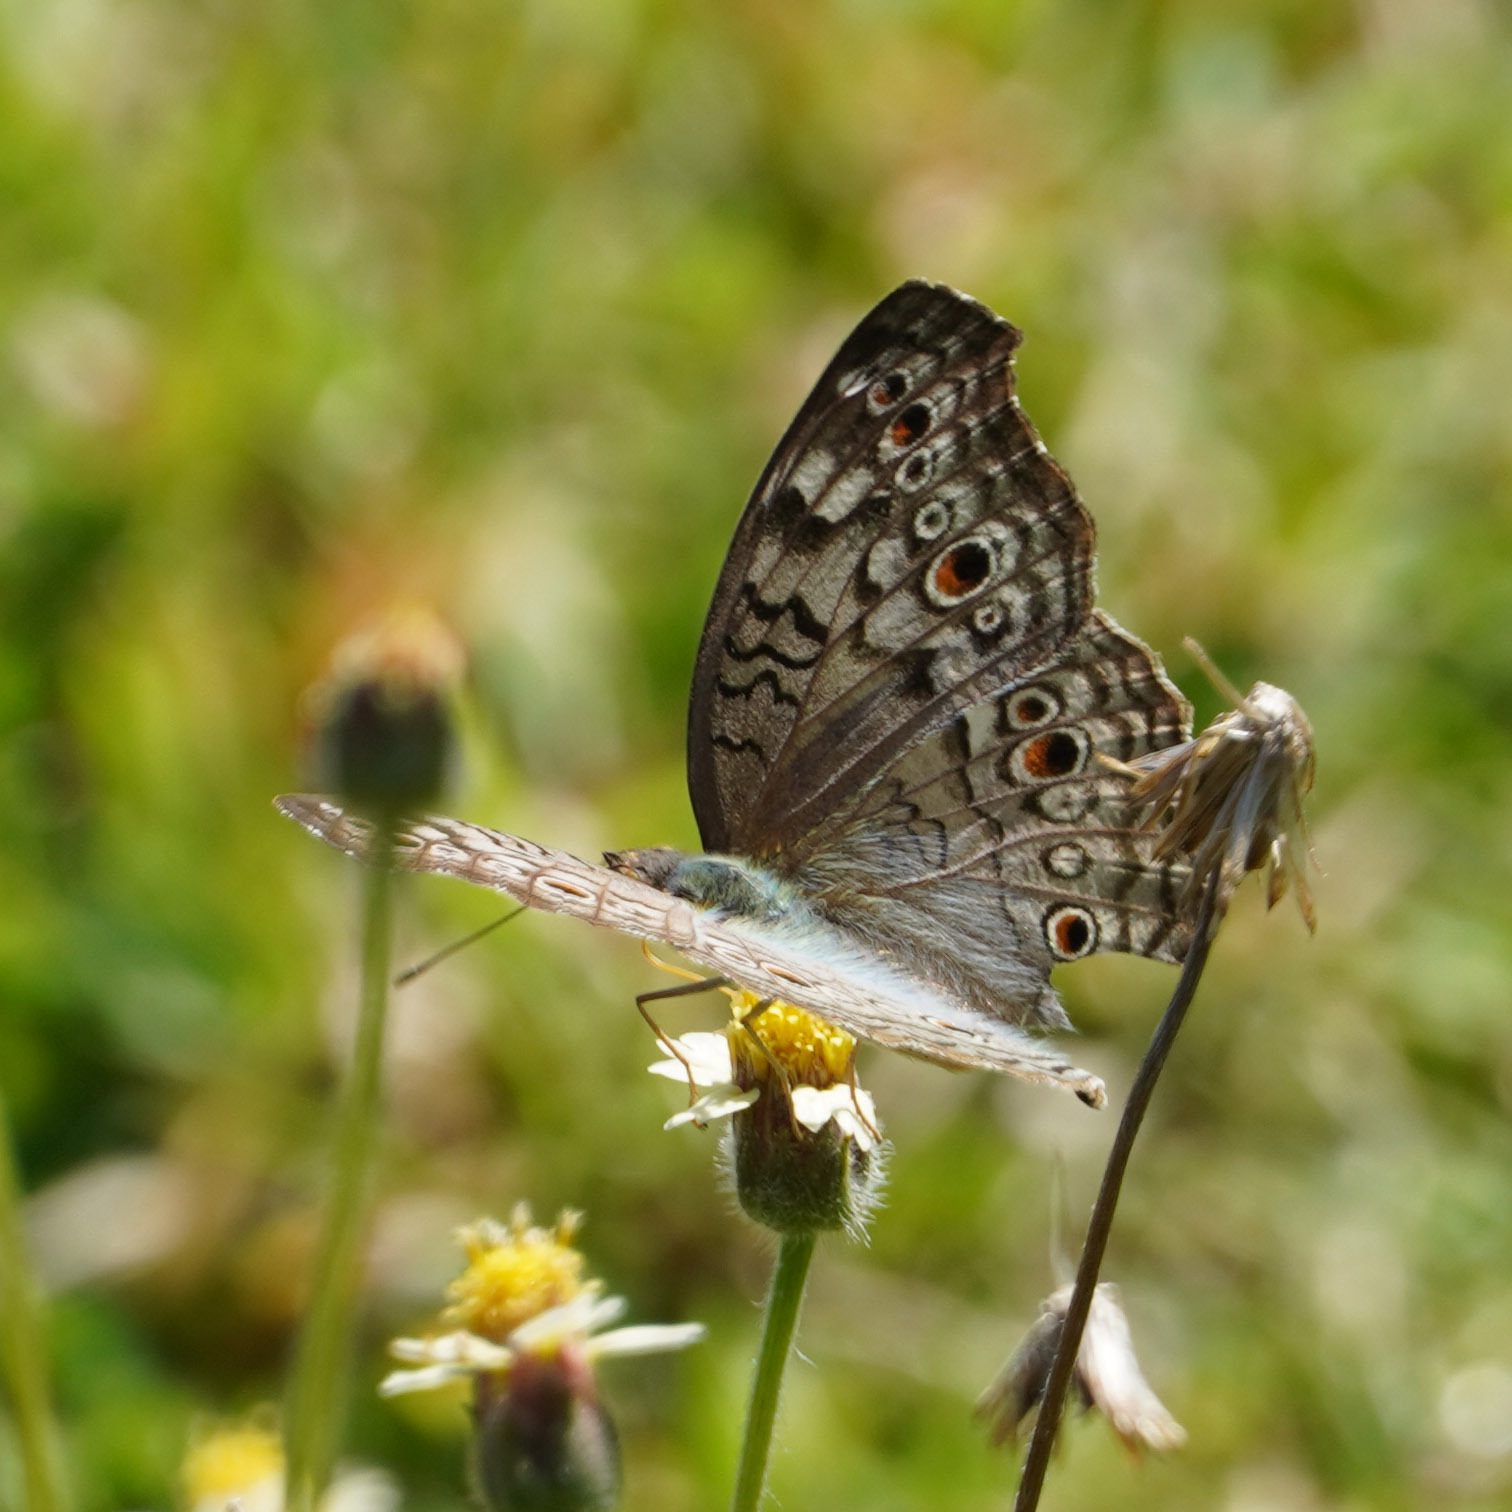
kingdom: Animalia
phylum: Arthropoda
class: Insecta
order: Lepidoptera
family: Nymphalidae
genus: Junonia
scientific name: Junonia atlites
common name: Grey pansy
